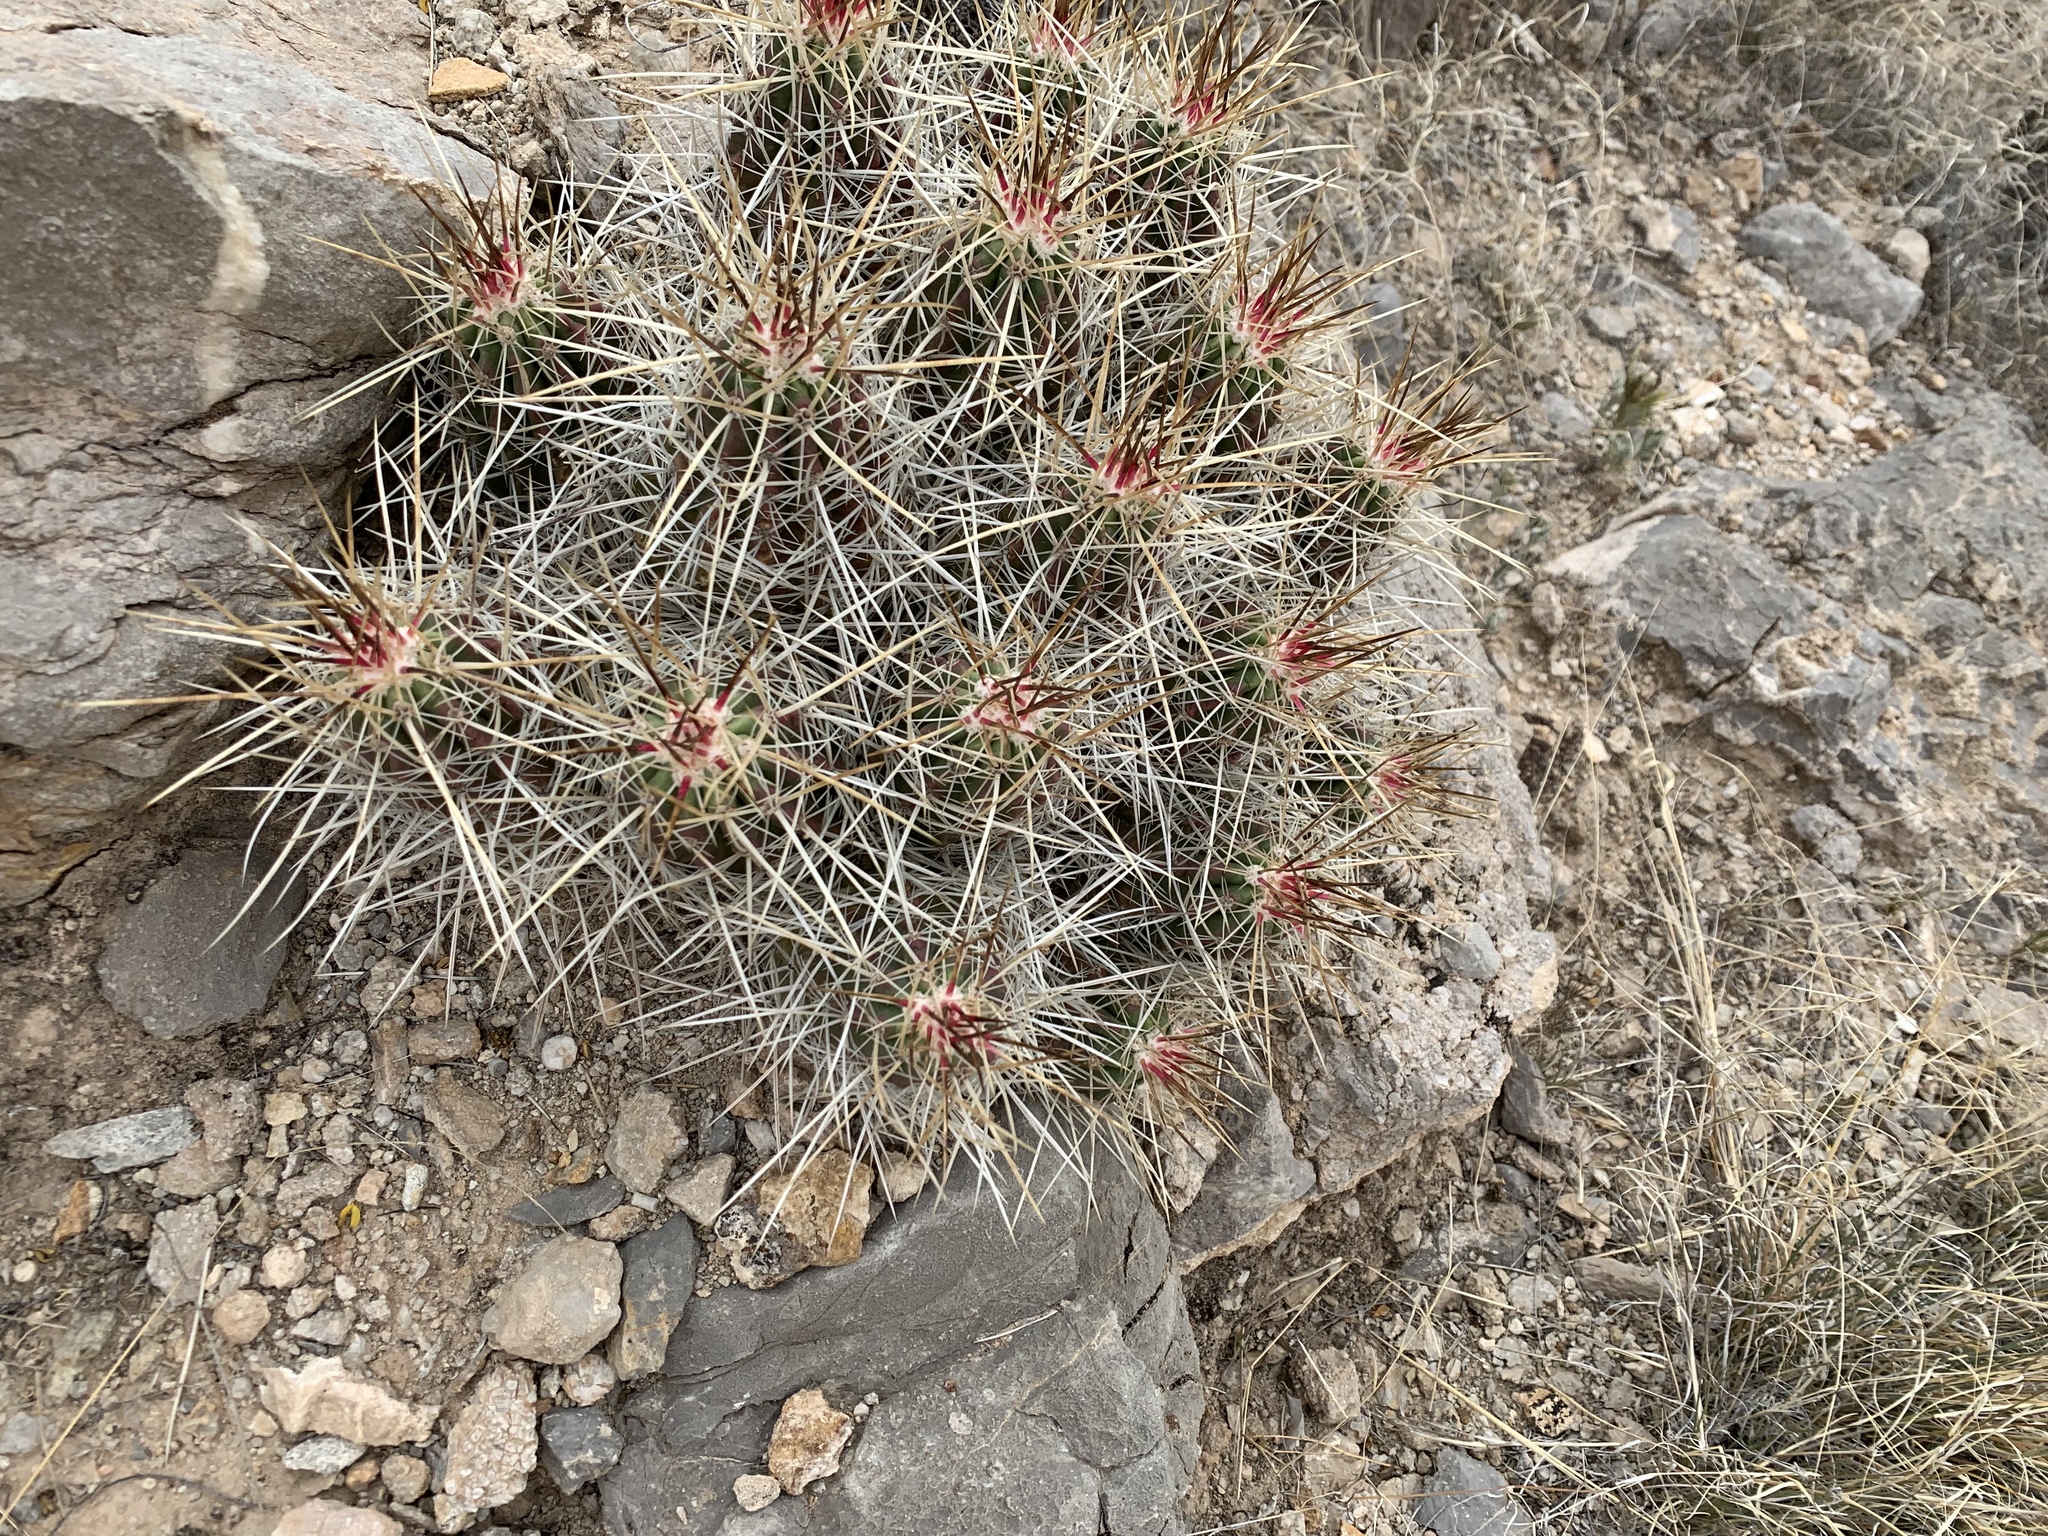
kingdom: Plantae
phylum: Tracheophyta
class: Magnoliopsida
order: Caryophyllales
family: Cactaceae
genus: Echinocereus
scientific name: Echinocereus stramineus
